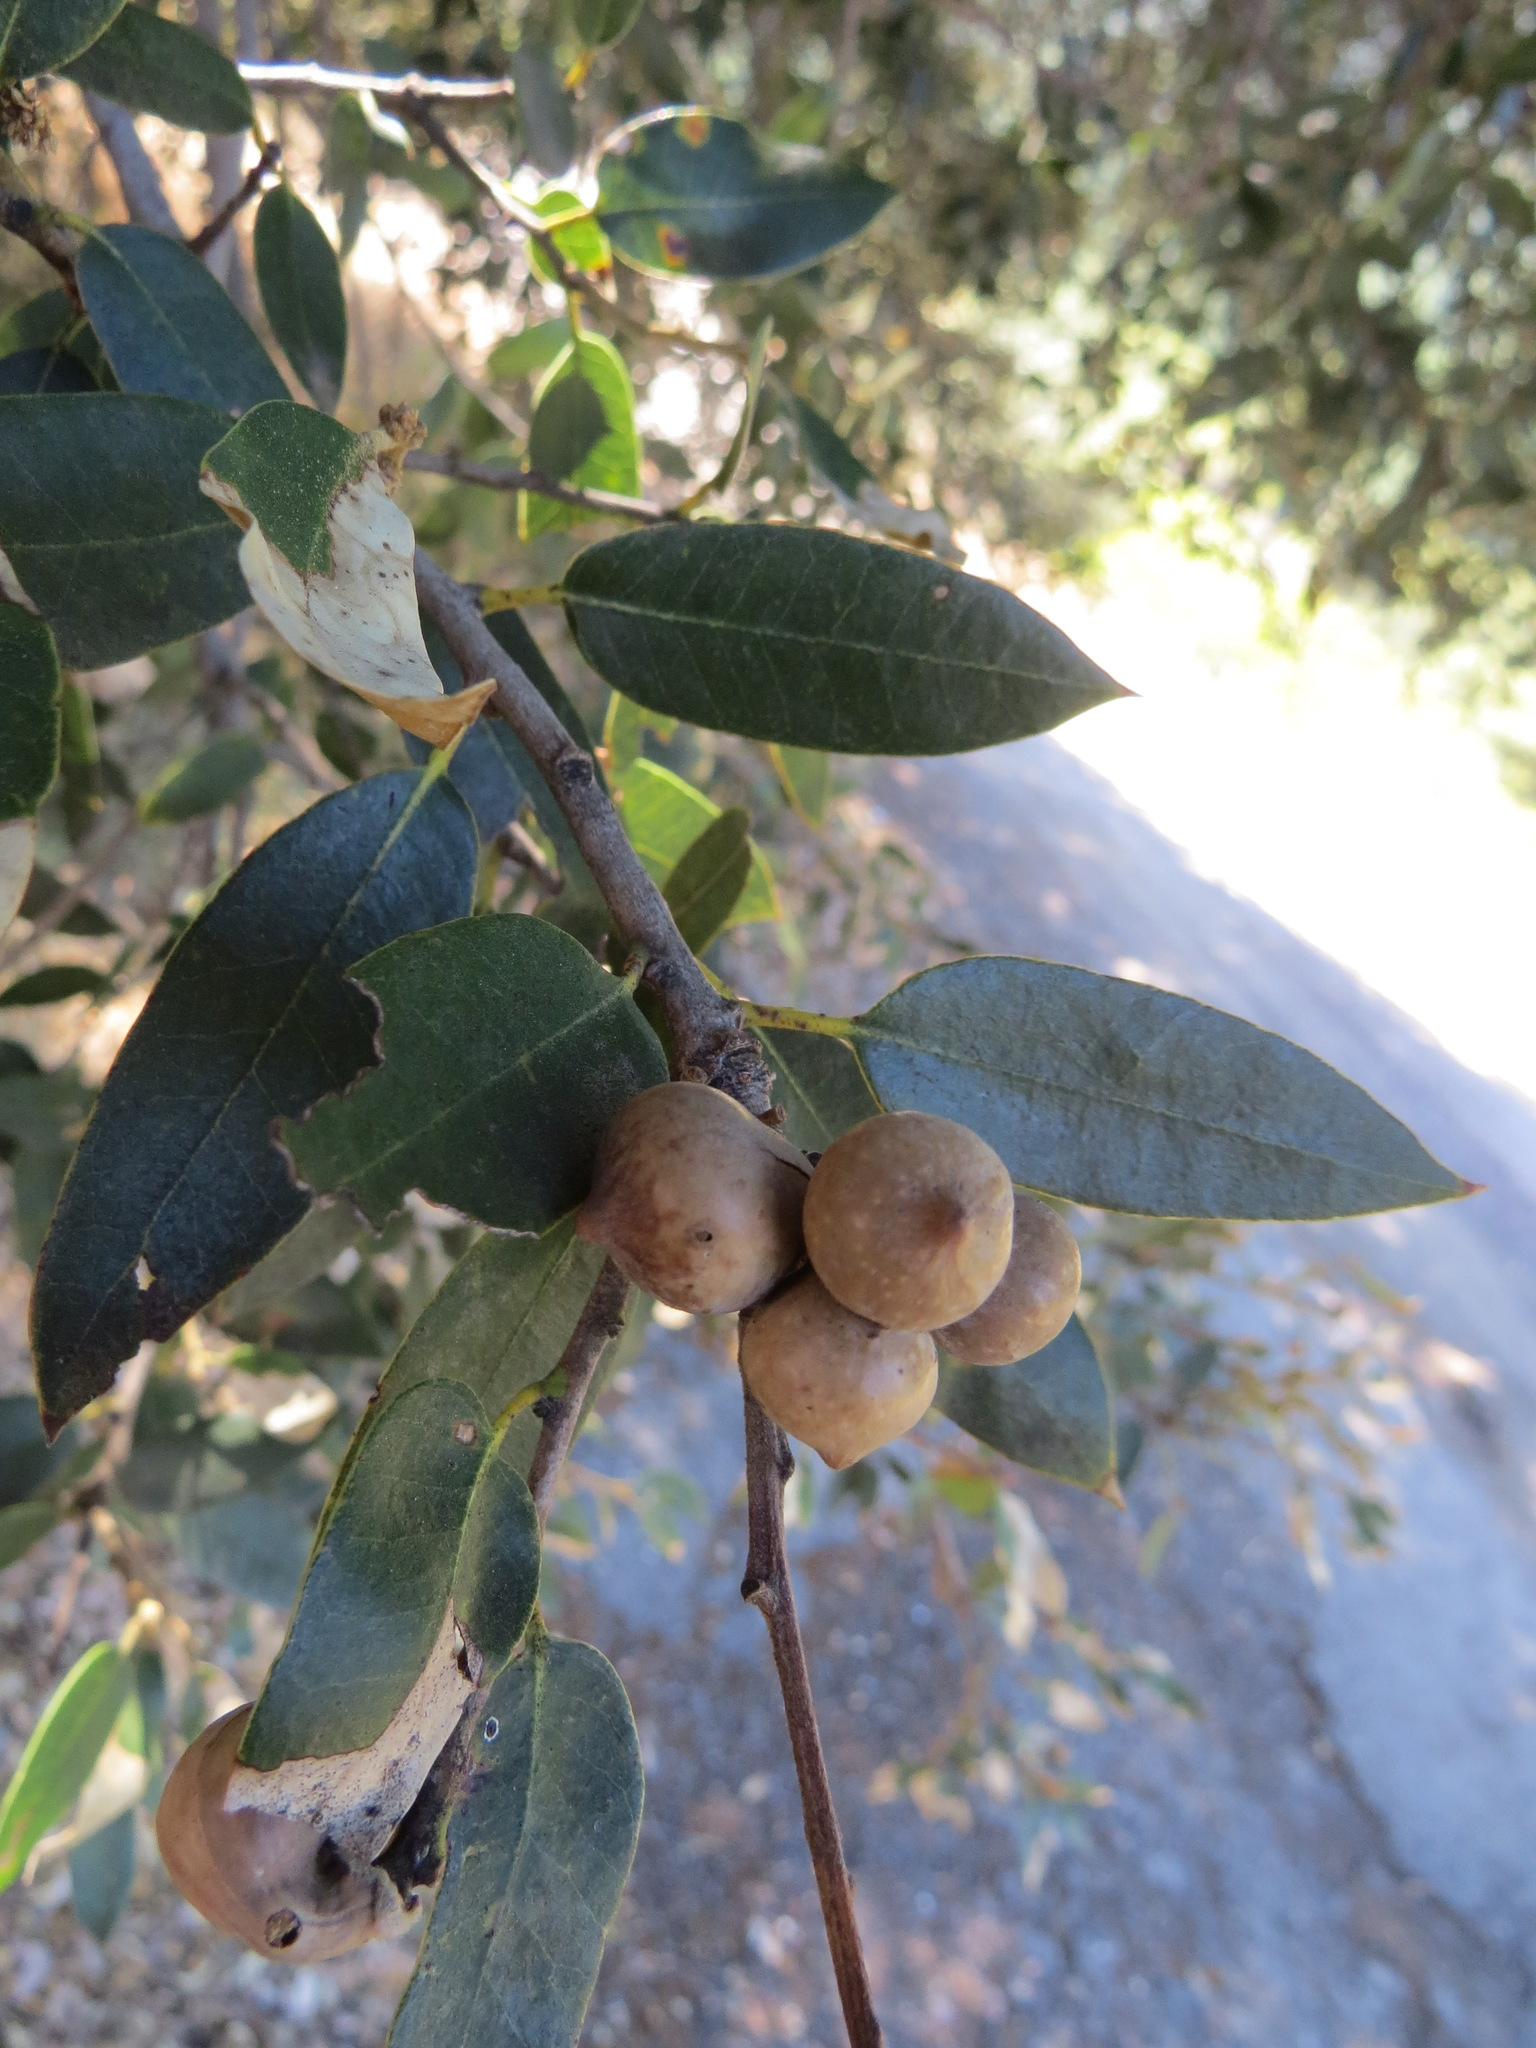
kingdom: Animalia
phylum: Arthropoda
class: Insecta
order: Hymenoptera
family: Cynipidae
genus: Heteroecus
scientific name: Heteroecus
